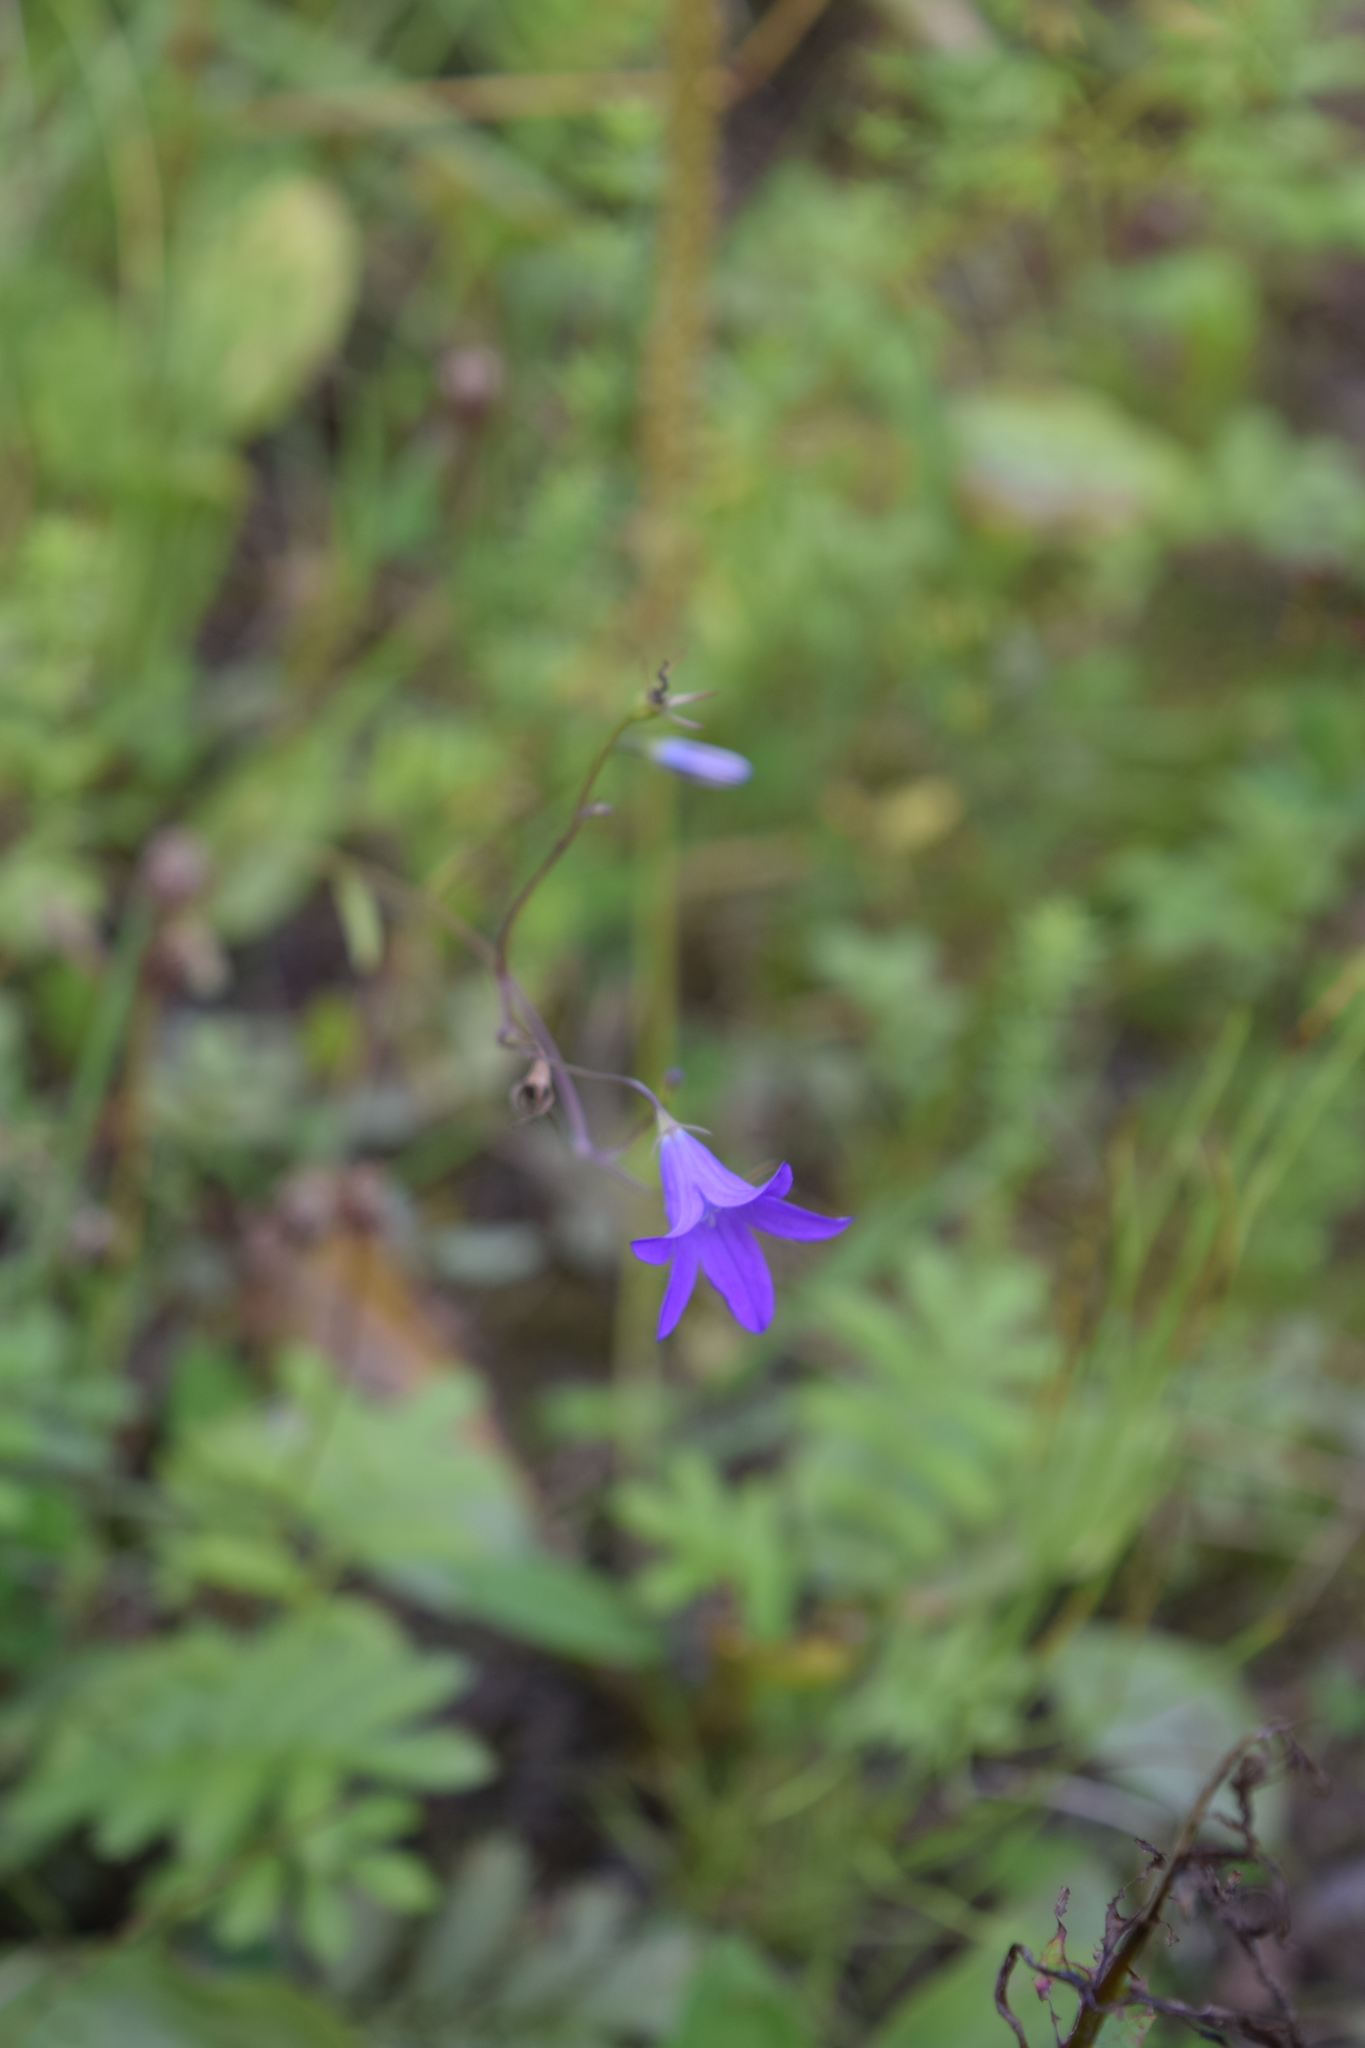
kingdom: Plantae
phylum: Tracheophyta
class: Magnoliopsida
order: Asterales
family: Campanulaceae
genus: Campanula
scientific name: Campanula patula
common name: Spreading bellflower
